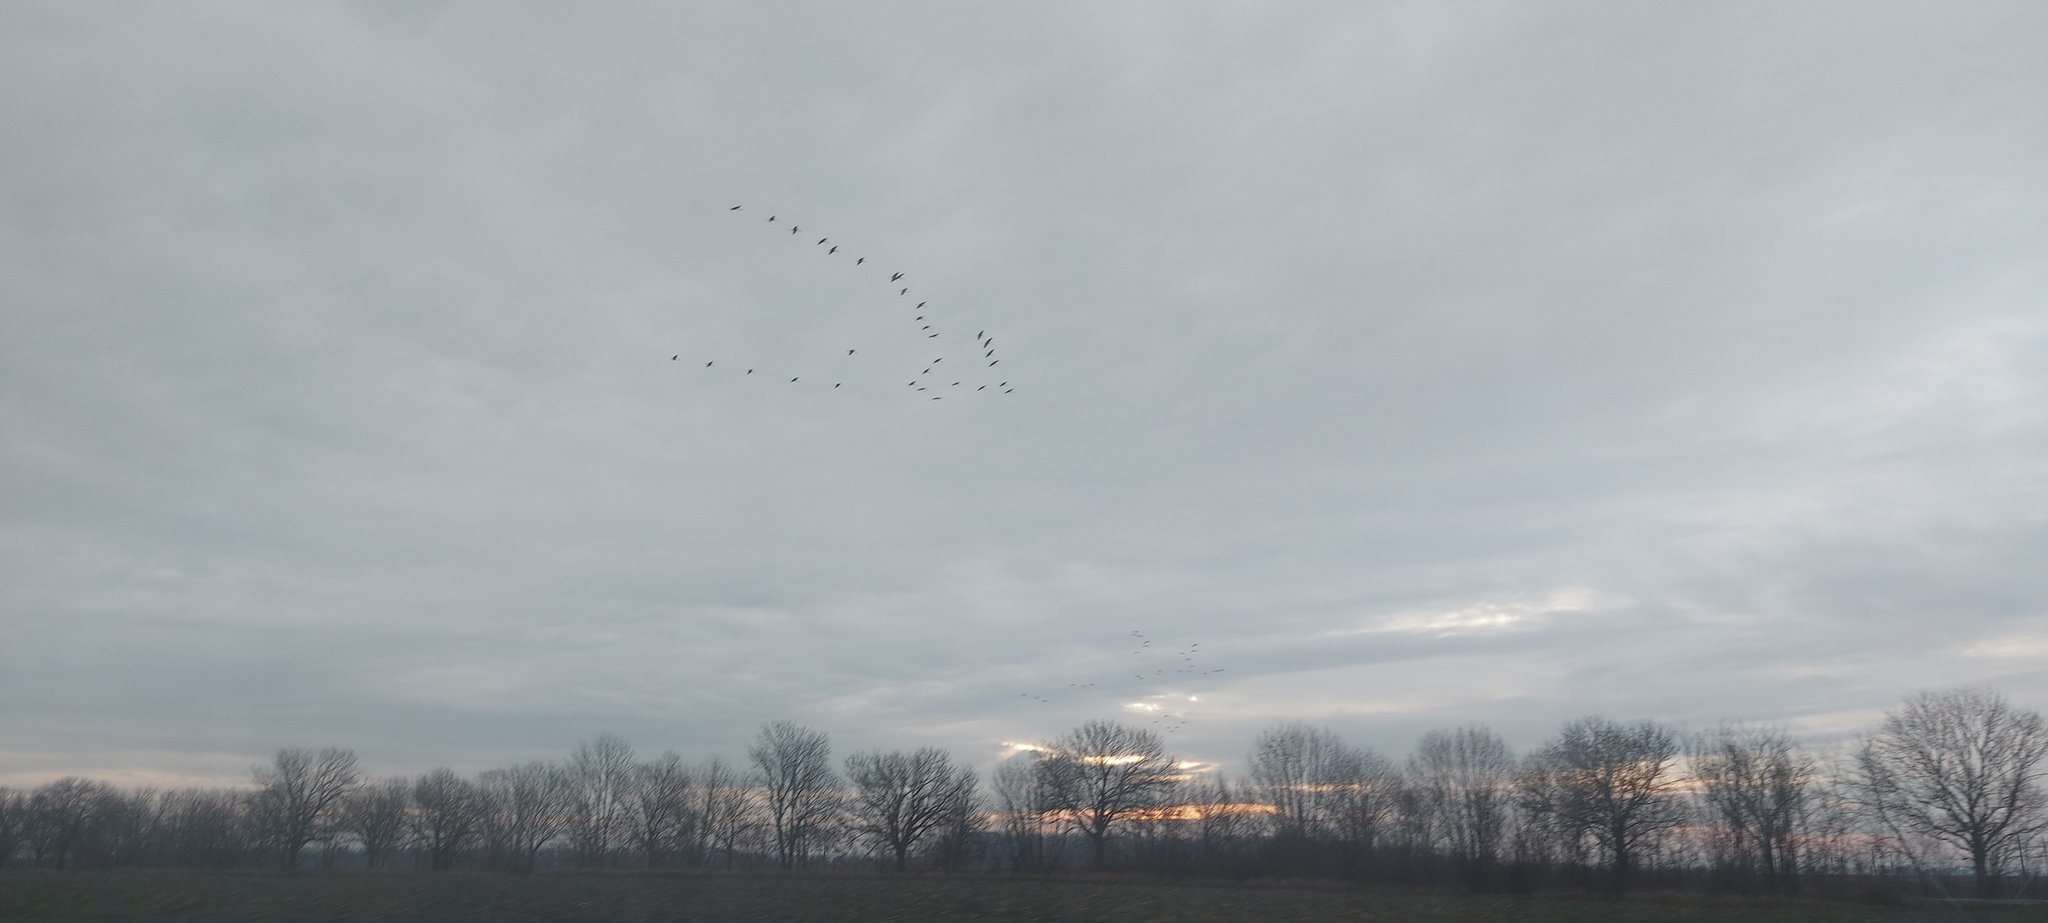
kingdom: Animalia
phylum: Chordata
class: Aves
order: Gruiformes
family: Gruidae
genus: Grus
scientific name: Grus grus
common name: Common crane
